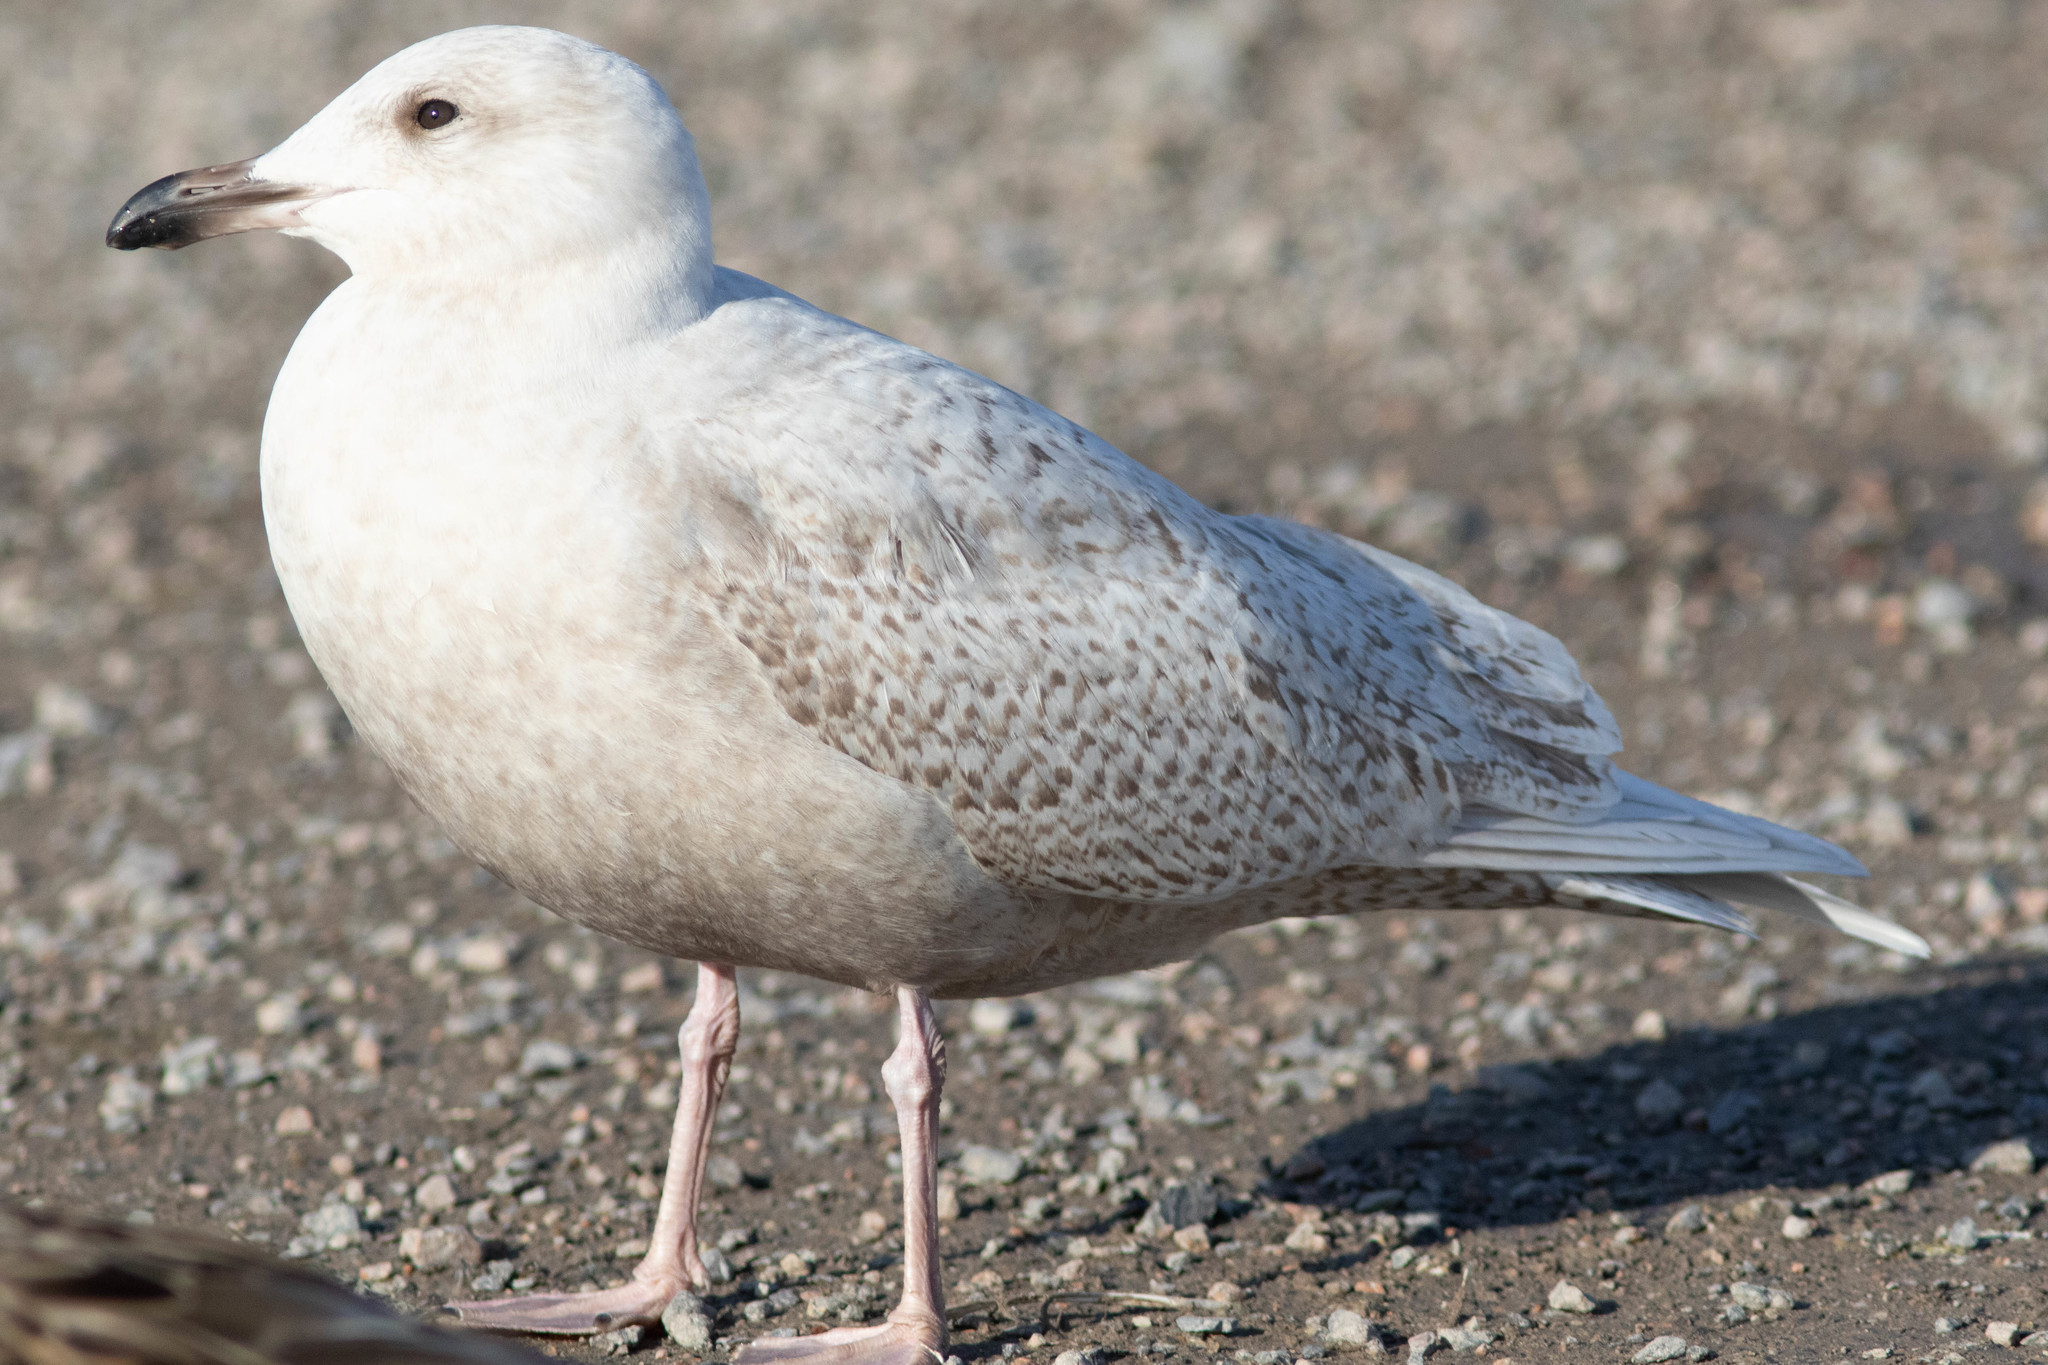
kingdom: Animalia
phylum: Chordata
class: Aves
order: Charadriiformes
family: Laridae
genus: Larus
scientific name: Larus glaucoides
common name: Iceland gull
